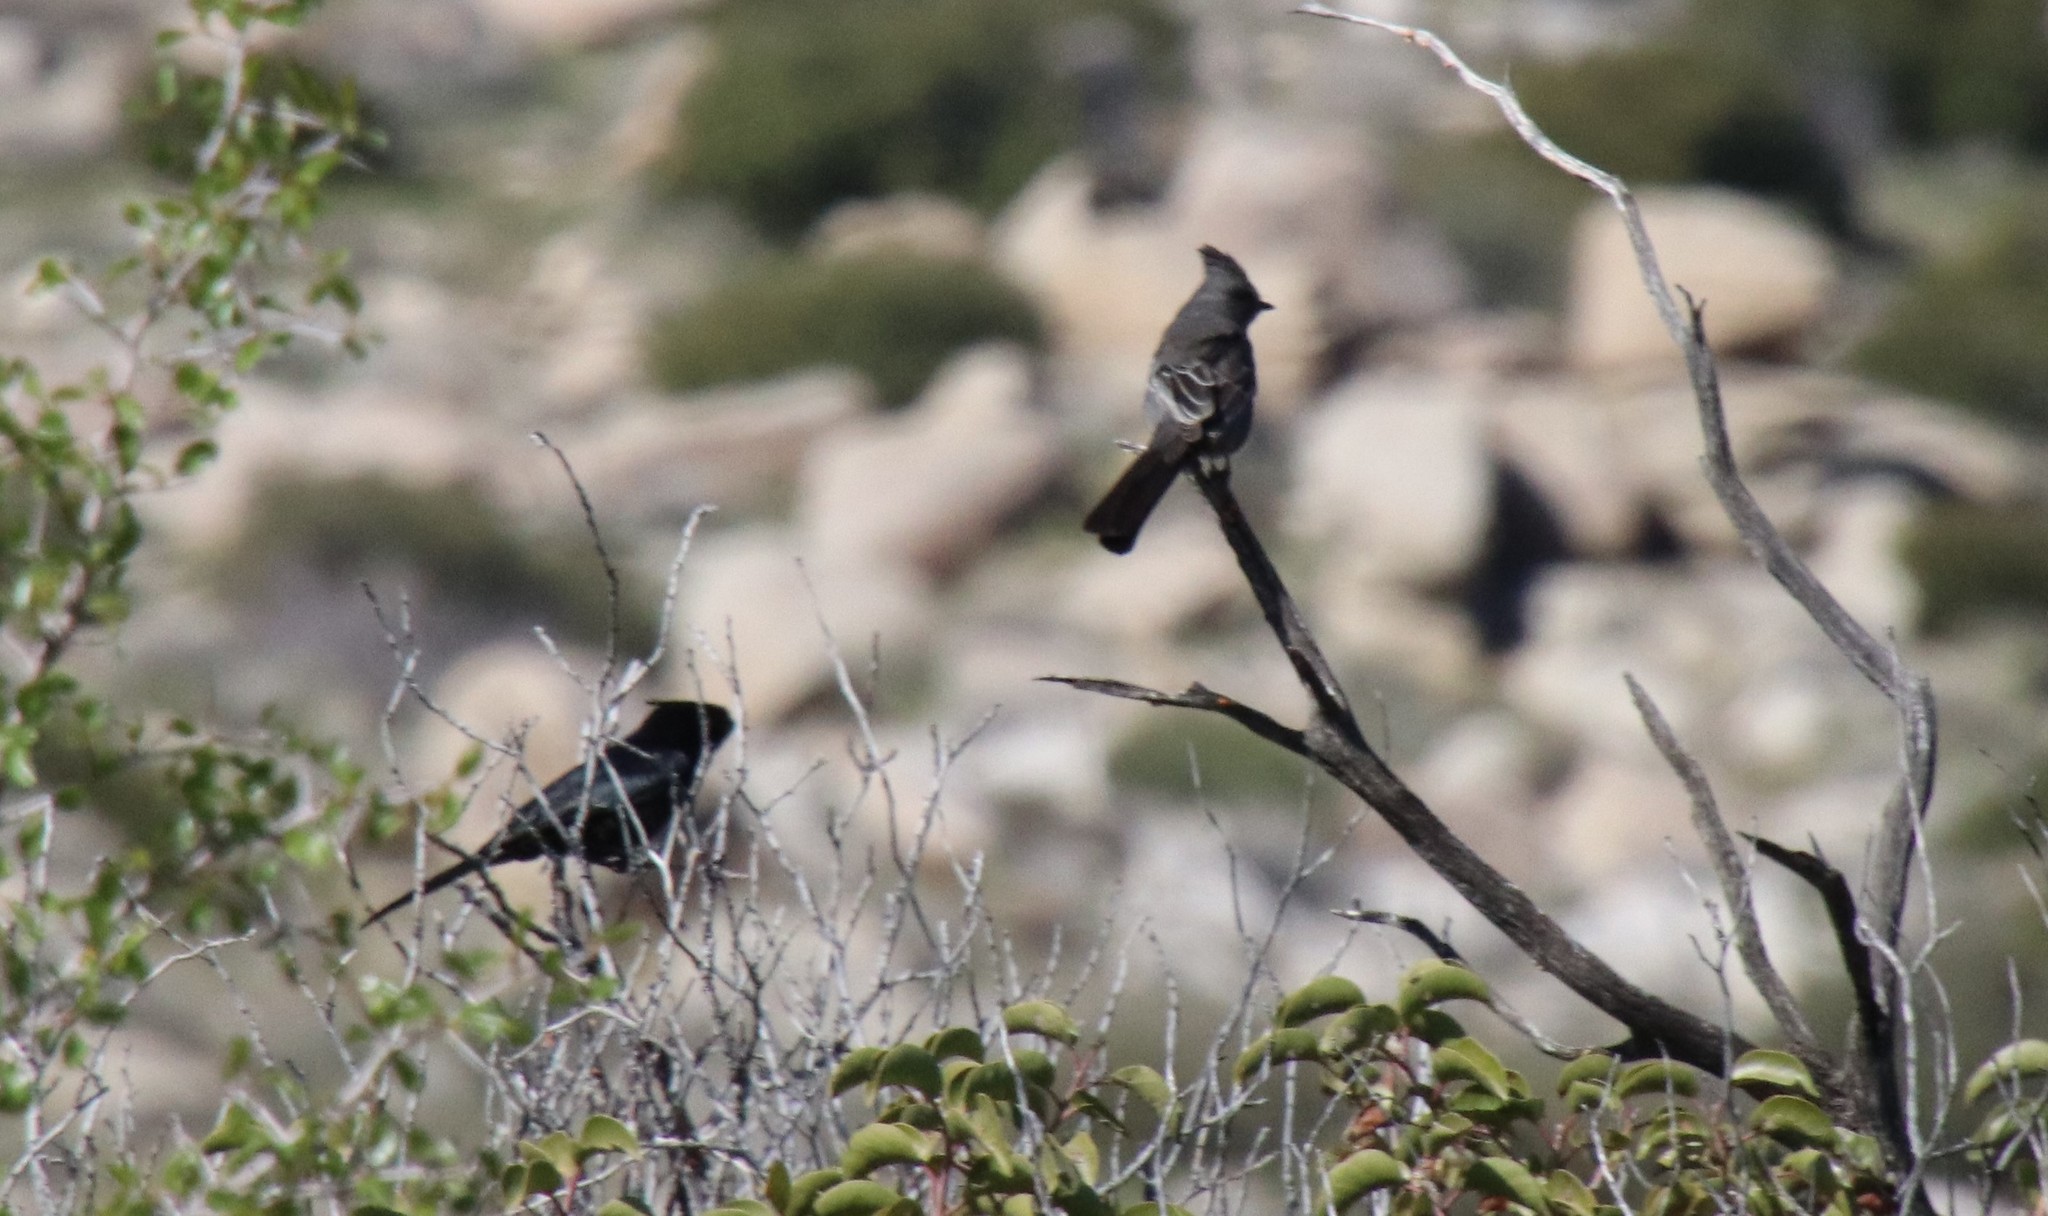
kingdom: Animalia
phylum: Chordata
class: Aves
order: Passeriformes
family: Ptilogonatidae
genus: Phainopepla
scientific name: Phainopepla nitens
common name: Phainopepla
